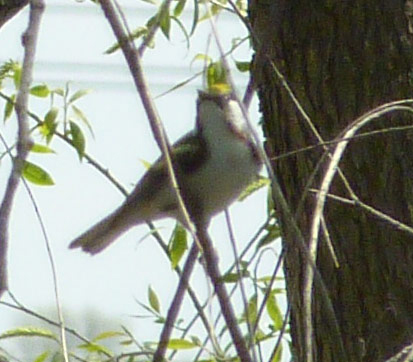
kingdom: Animalia
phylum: Chordata
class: Aves
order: Passeriformes
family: Parulidae
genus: Setophaga
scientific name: Setophaga pensylvanica
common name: Chestnut-sided warbler
